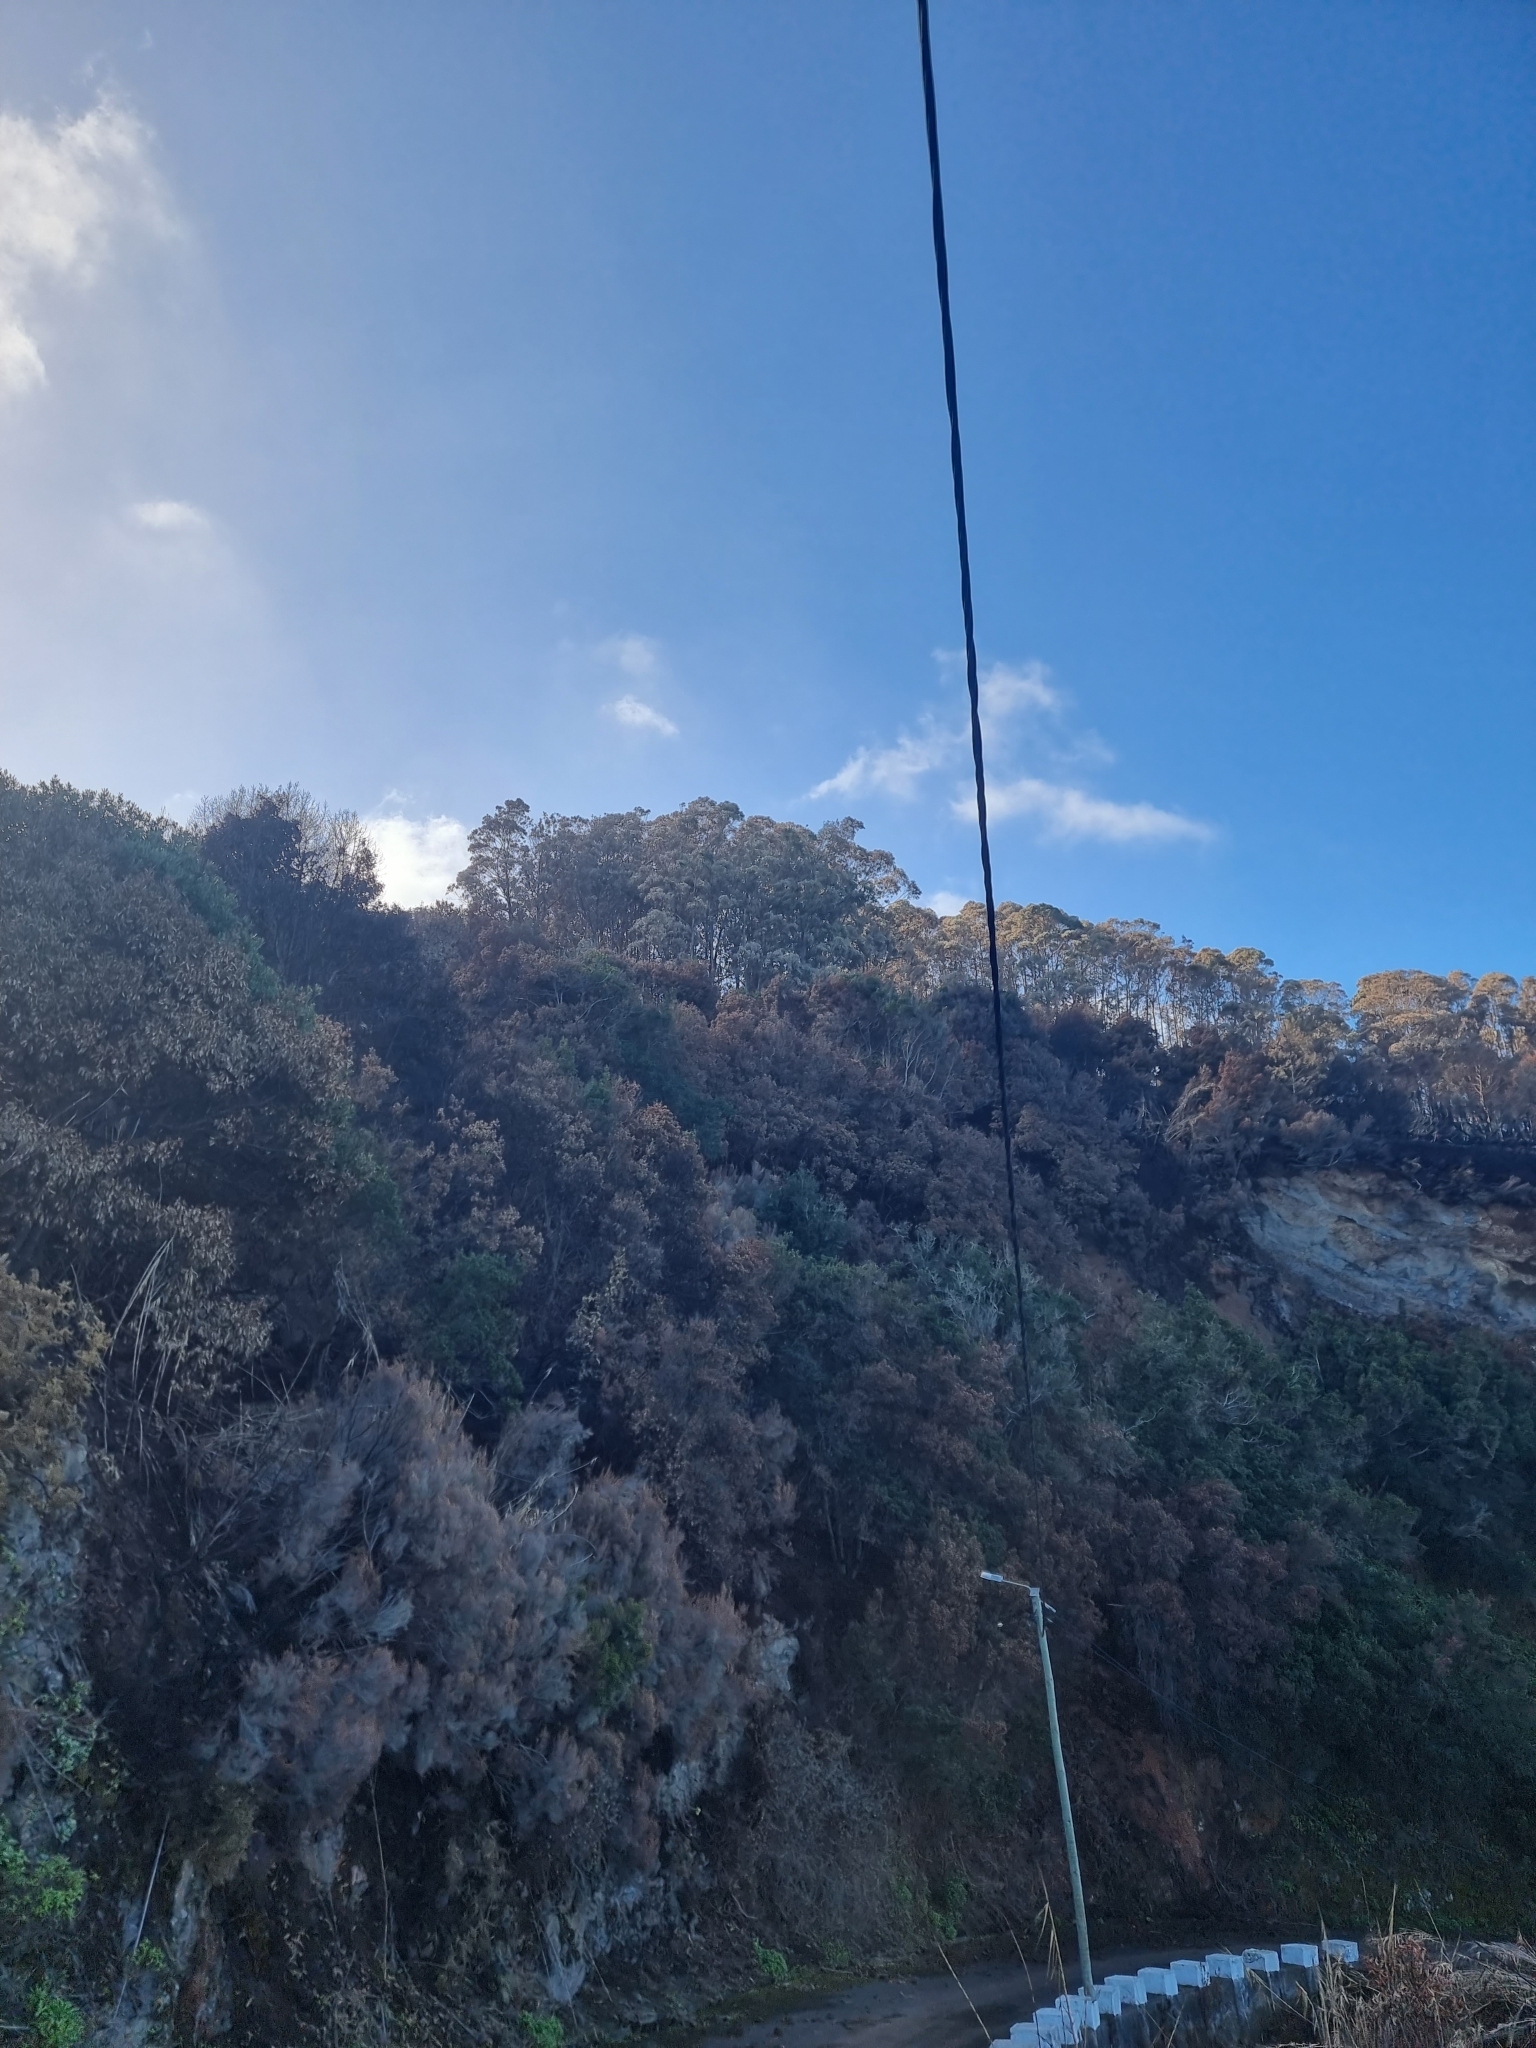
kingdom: Plantae
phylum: Tracheophyta
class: Magnoliopsida
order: Myrtales
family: Myrtaceae
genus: Eucalyptus
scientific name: Eucalyptus globulus
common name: Southern blue-gum
